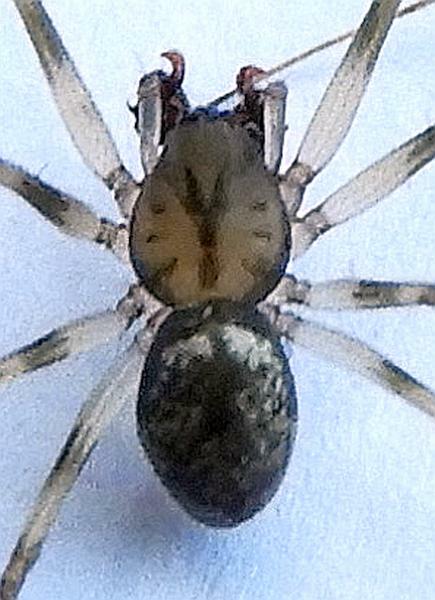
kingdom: Animalia
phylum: Arthropoda
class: Arachnida
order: Araneae
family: Linyphiidae
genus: Drapetisca
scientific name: Drapetisca alteranda
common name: Northern long-toothed sheetweaver
